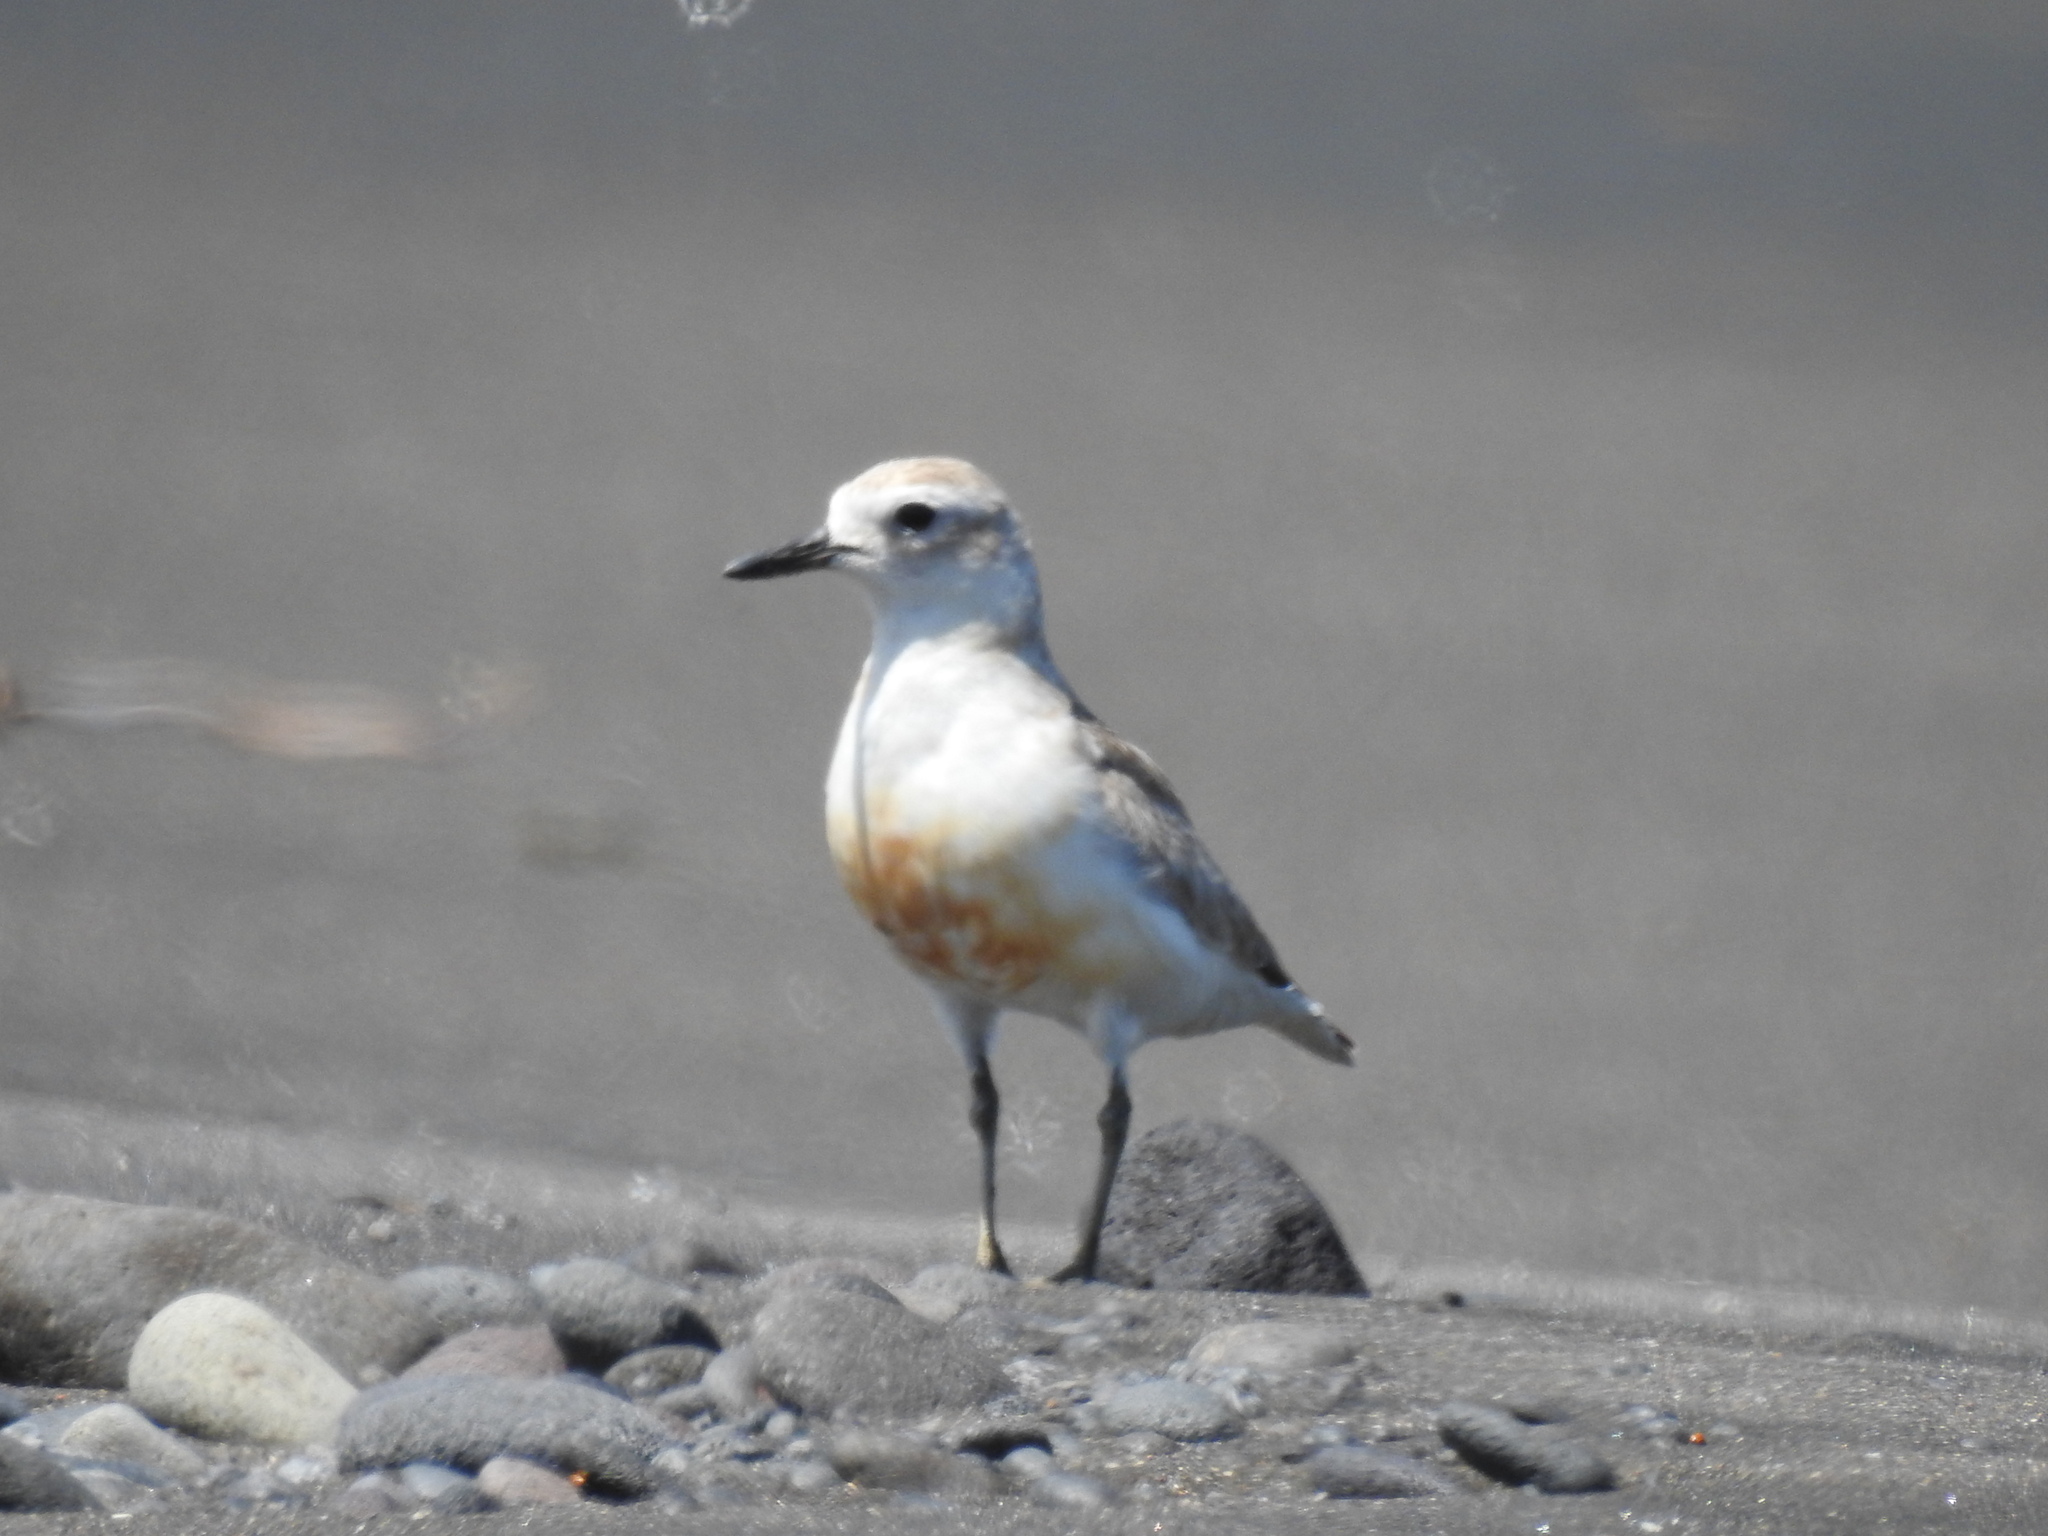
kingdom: Animalia
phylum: Chordata
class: Aves
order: Charadriiformes
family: Charadriidae
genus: Anarhynchus
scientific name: Anarhynchus
